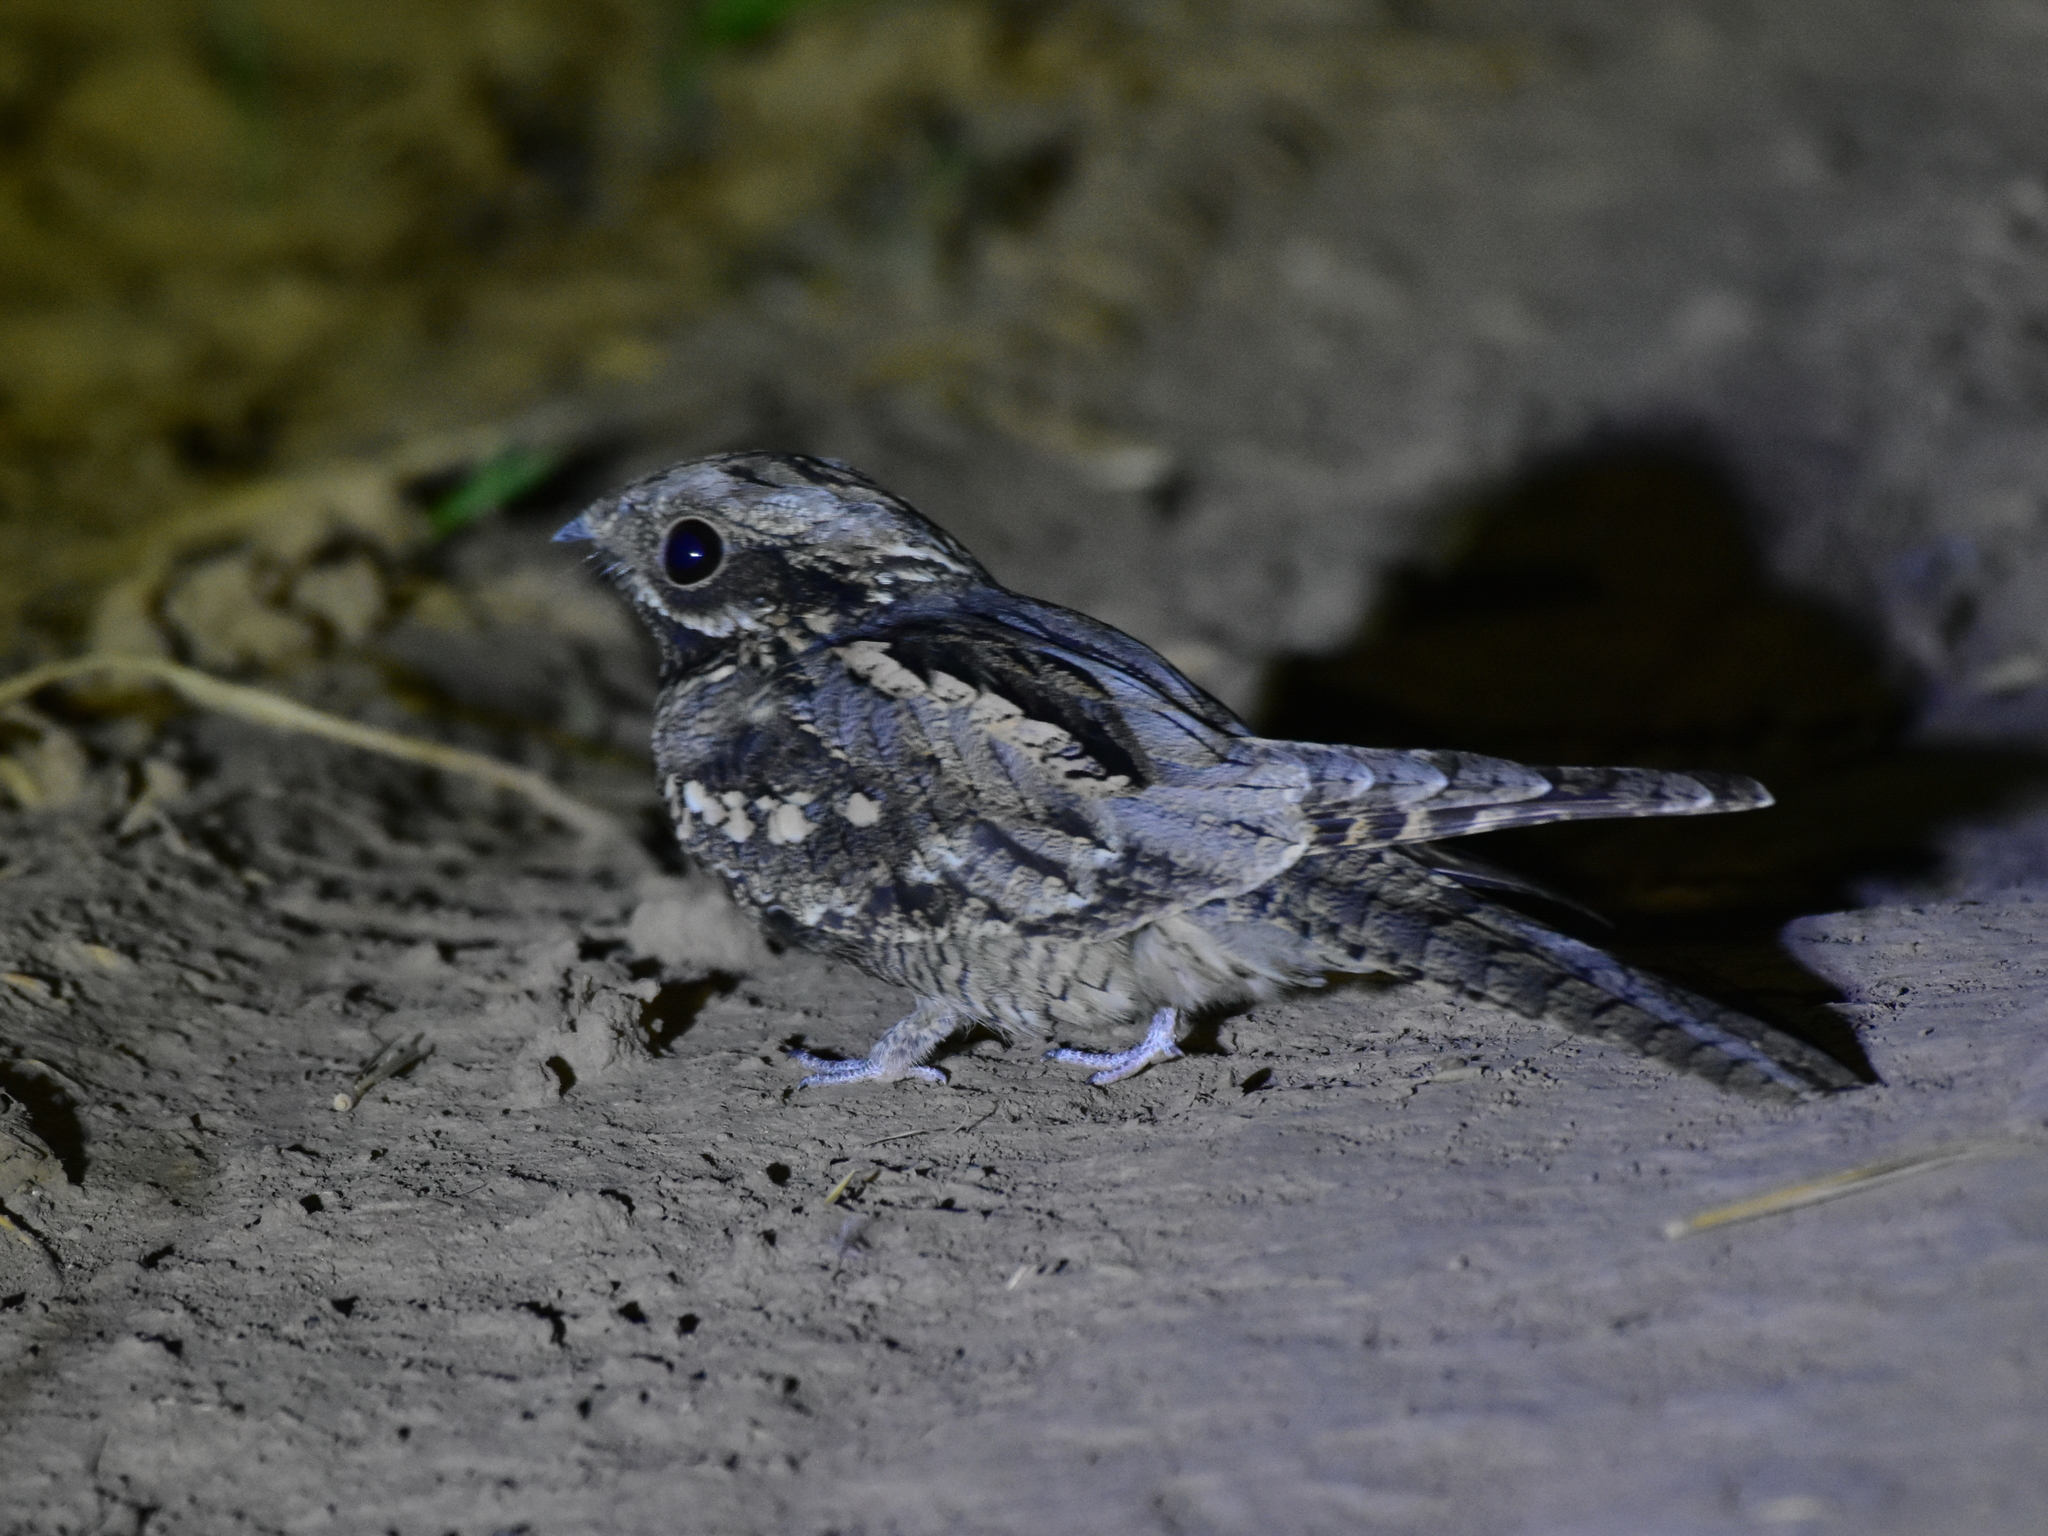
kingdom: Animalia
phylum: Chordata
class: Aves
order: Caprimulgiformes
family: Caprimulgidae
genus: Caprimulgus
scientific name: Caprimulgus europaeus
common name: European nightjar
